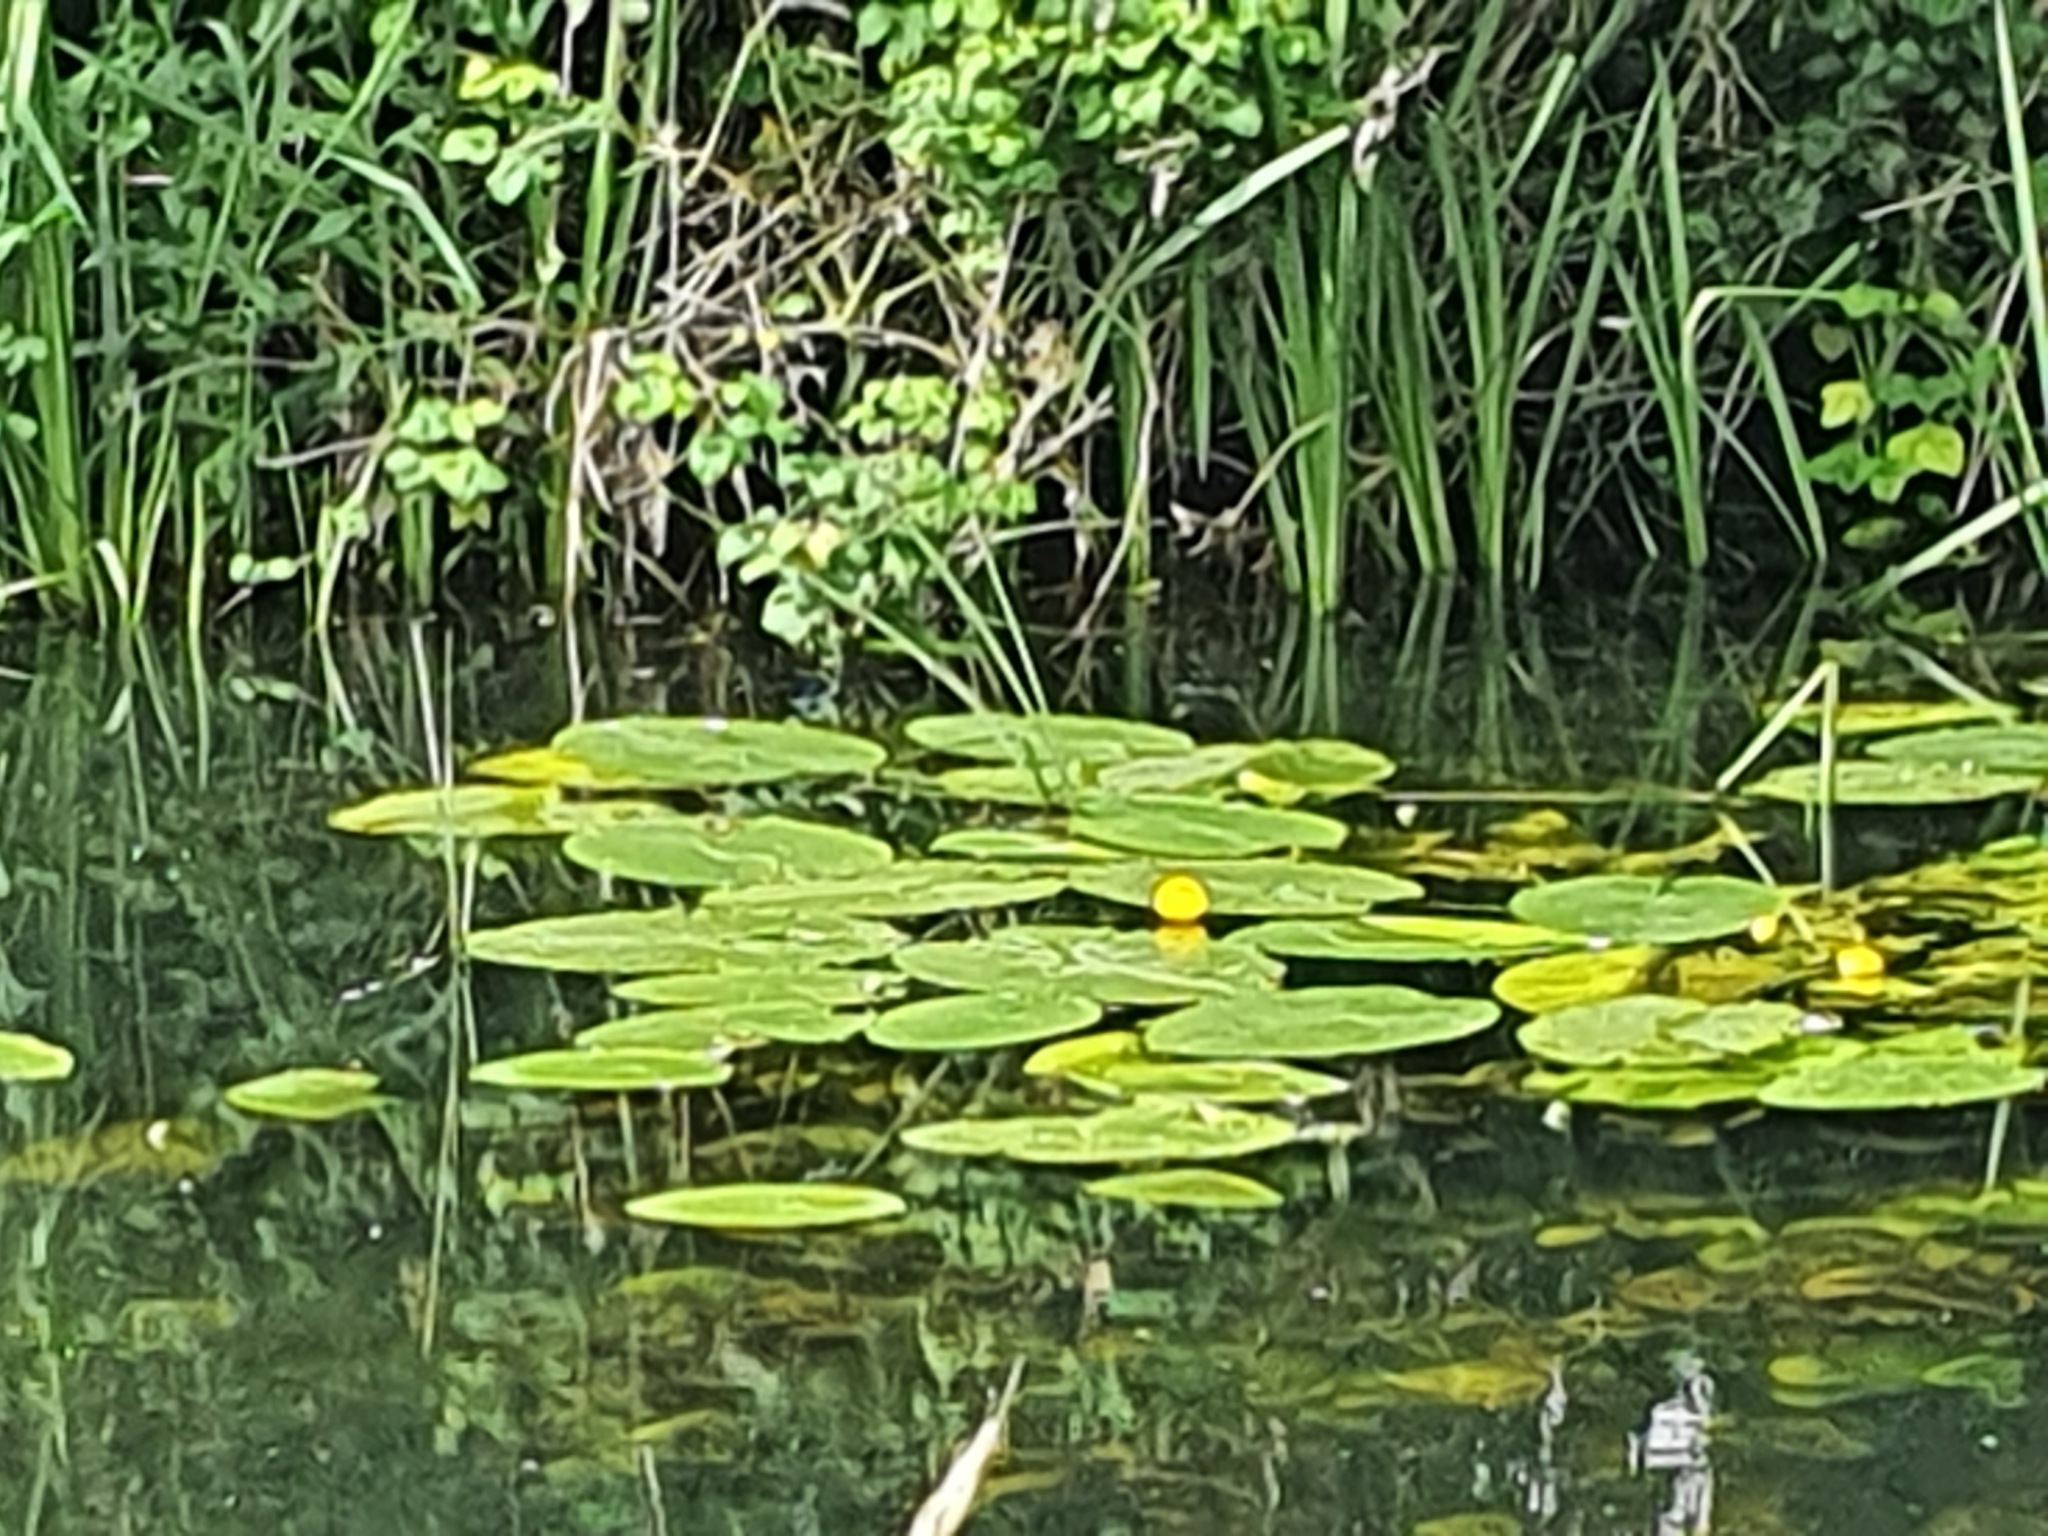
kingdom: Plantae
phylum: Tracheophyta
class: Magnoliopsida
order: Nymphaeales
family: Nymphaeaceae
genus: Nuphar
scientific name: Nuphar lutea
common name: Yellow water-lily
